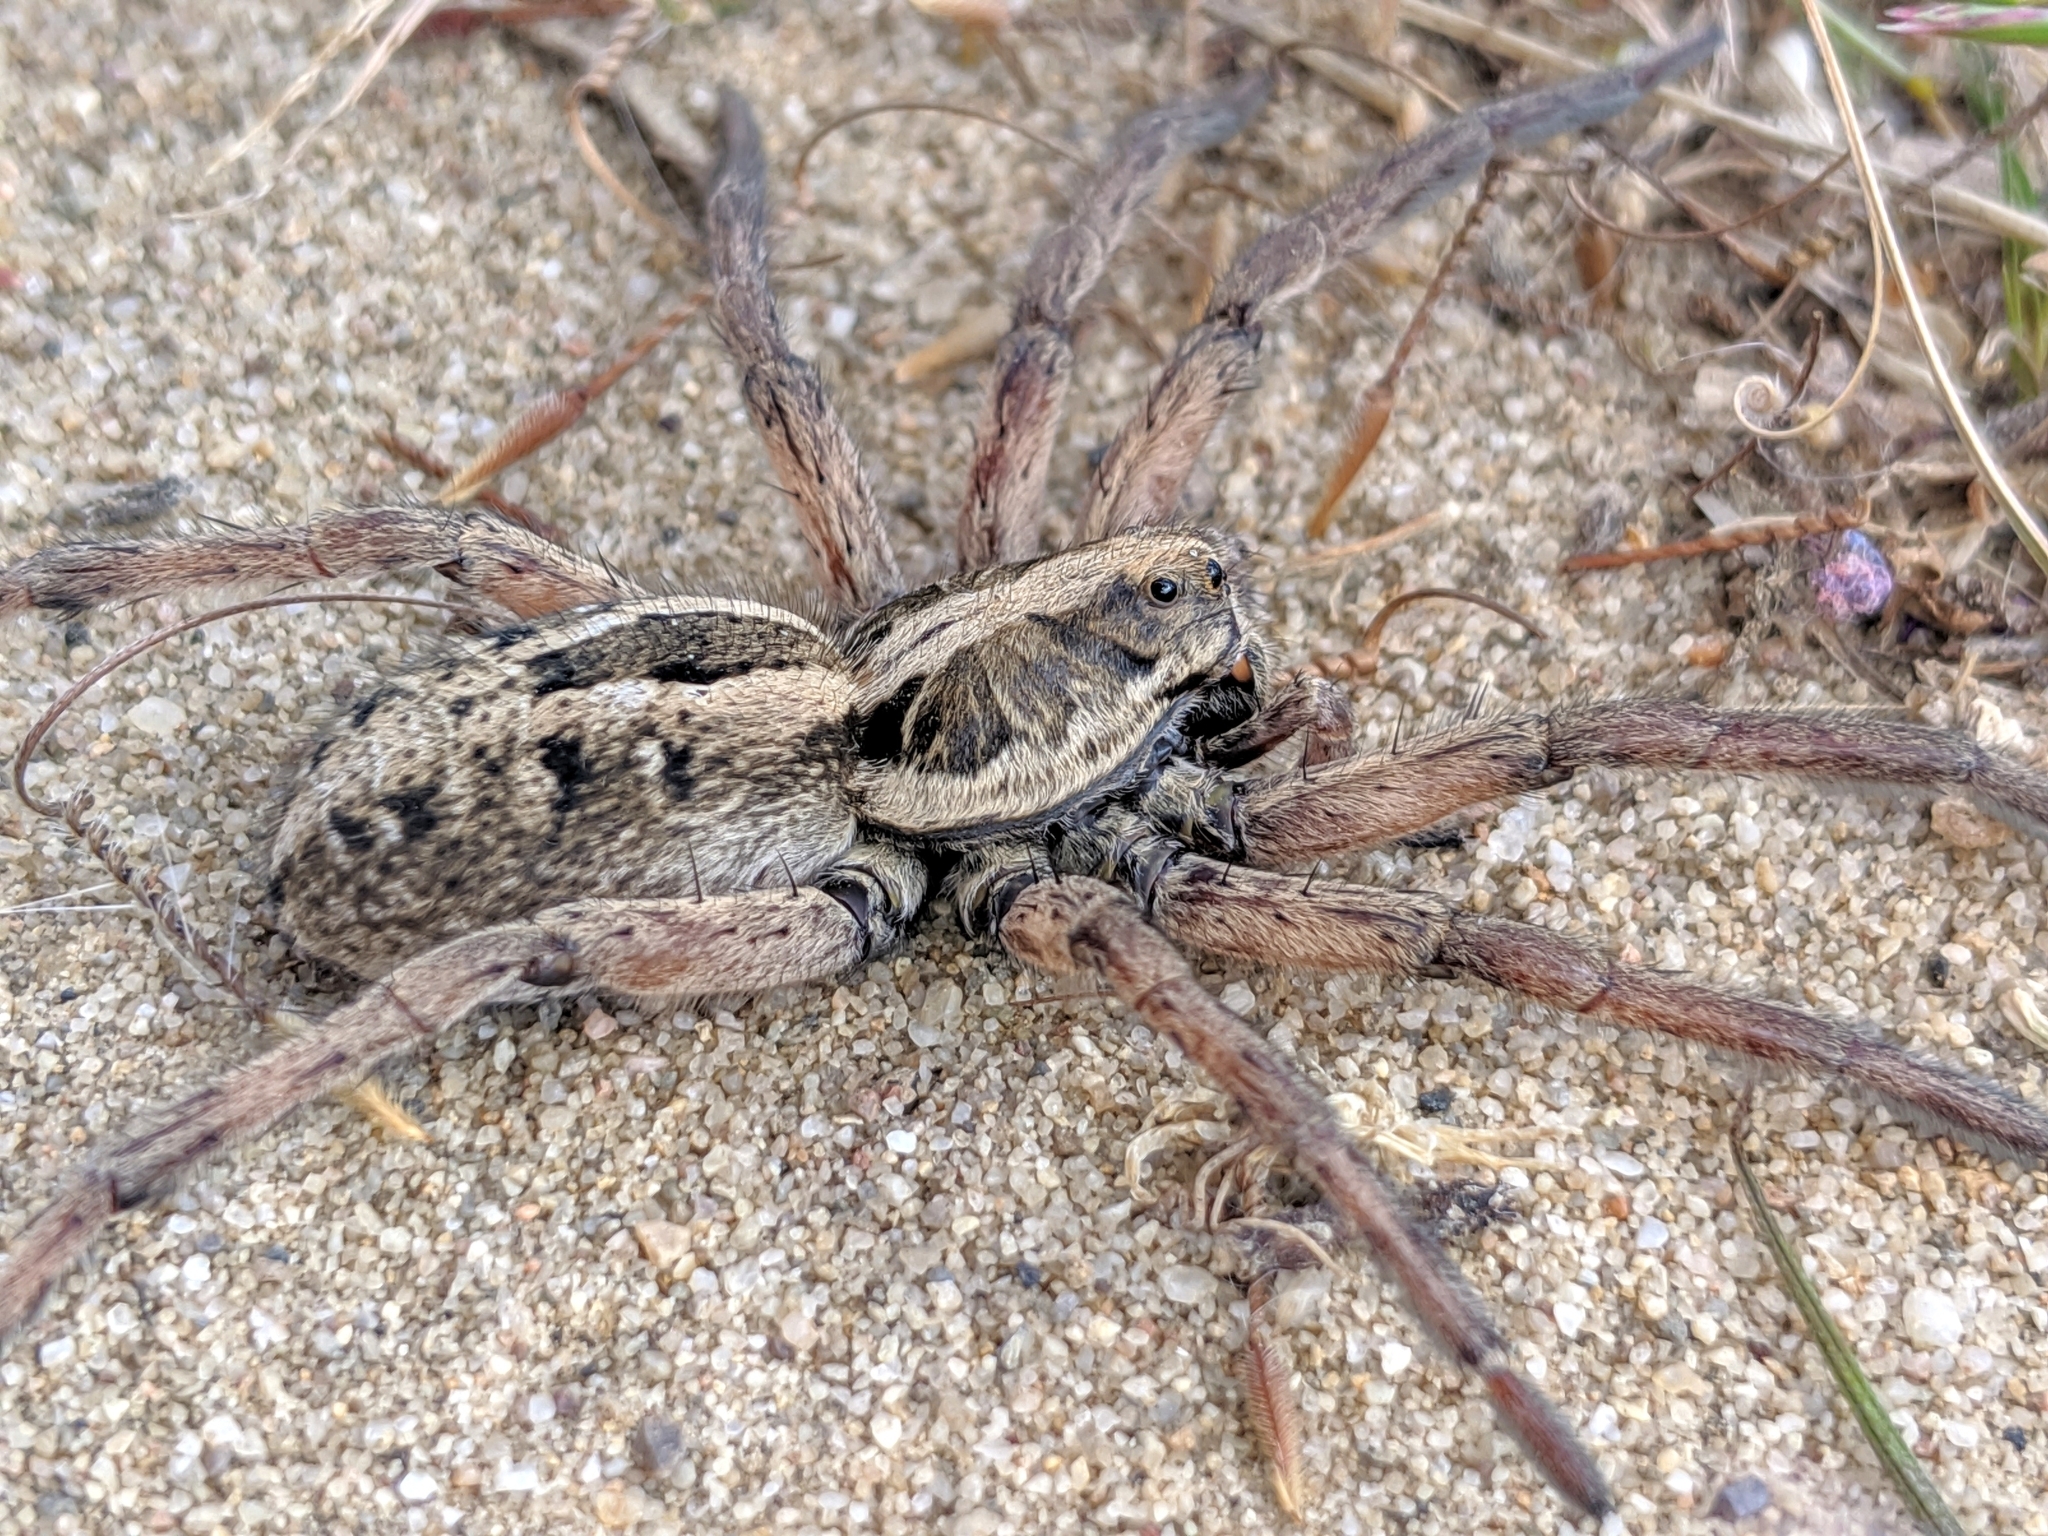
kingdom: Animalia
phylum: Arthropoda
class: Arachnida
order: Araneae
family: Lycosidae
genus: Schizocosa
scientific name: Schizocosa maxima
